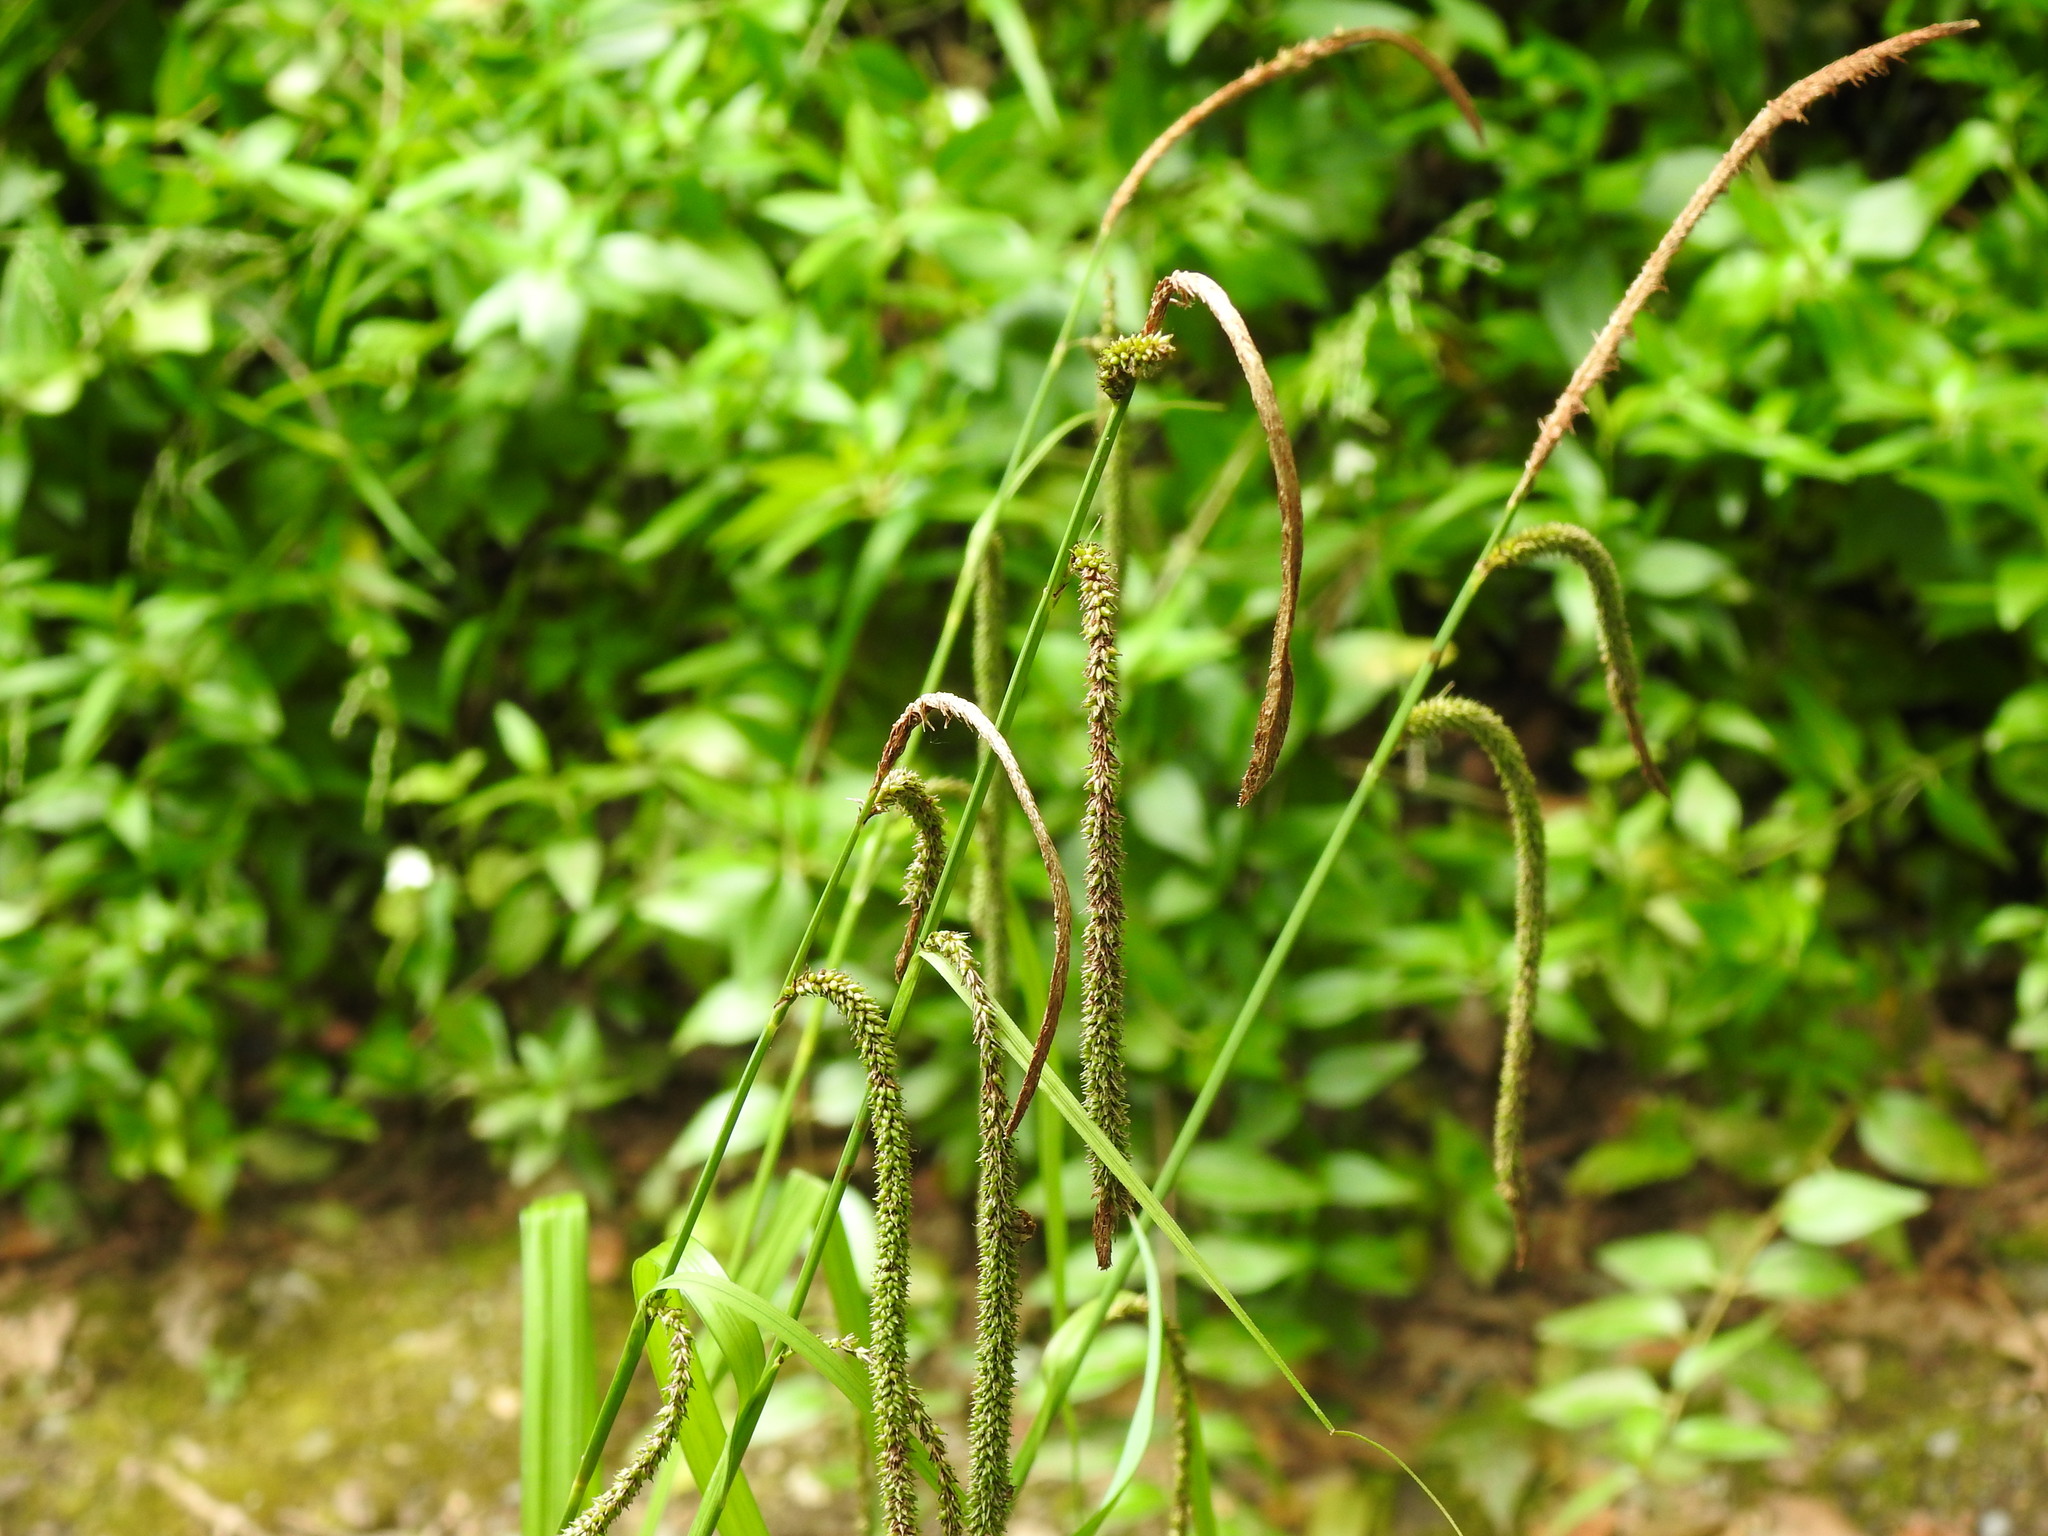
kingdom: Plantae
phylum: Tracheophyta
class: Liliopsida
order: Poales
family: Cyperaceae
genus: Carex
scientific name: Carex pendula
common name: Pendulous sedge
